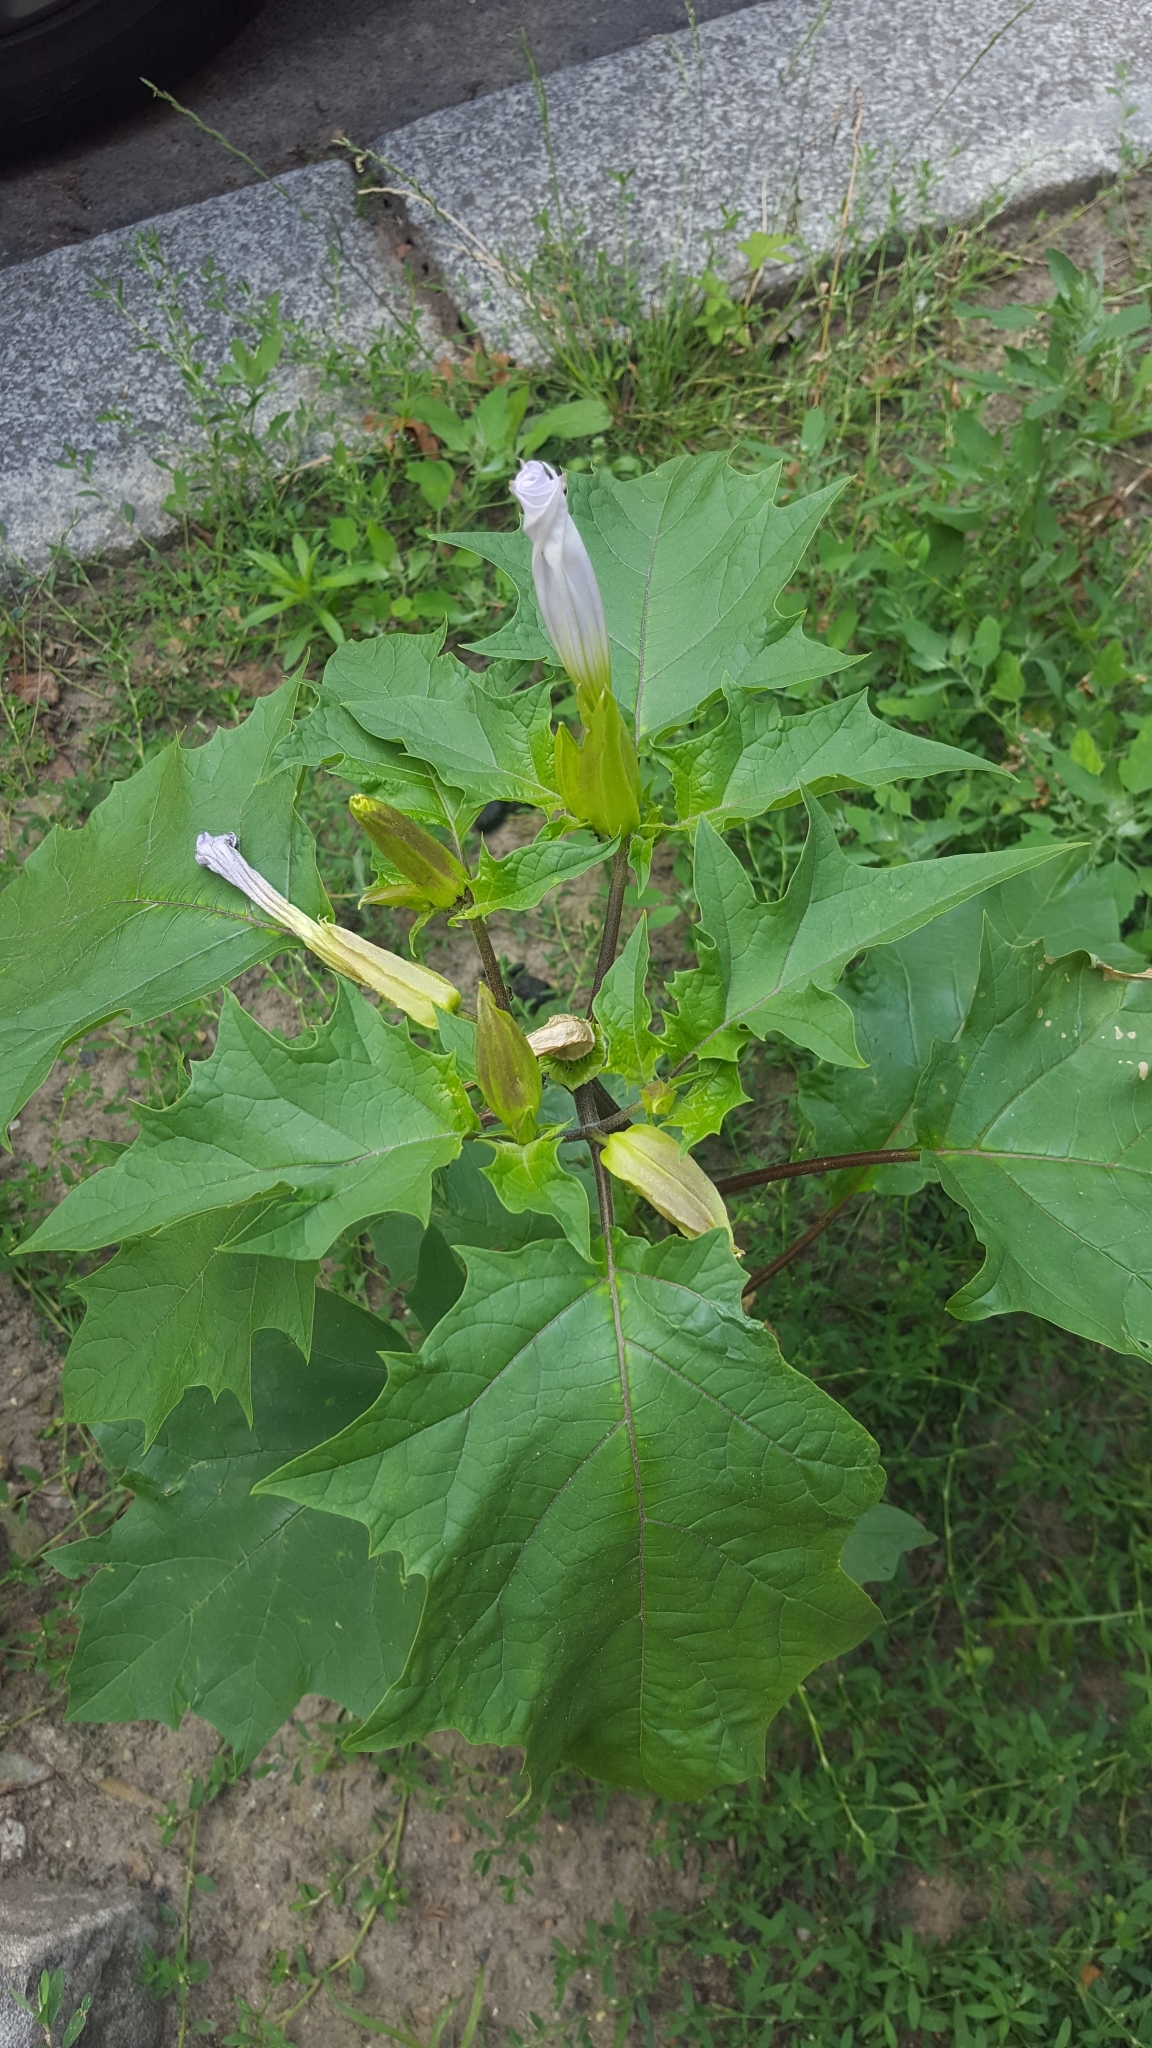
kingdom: Plantae
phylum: Tracheophyta
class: Magnoliopsida
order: Solanales
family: Solanaceae
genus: Datura
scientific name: Datura stramonium
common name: Thorn-apple
